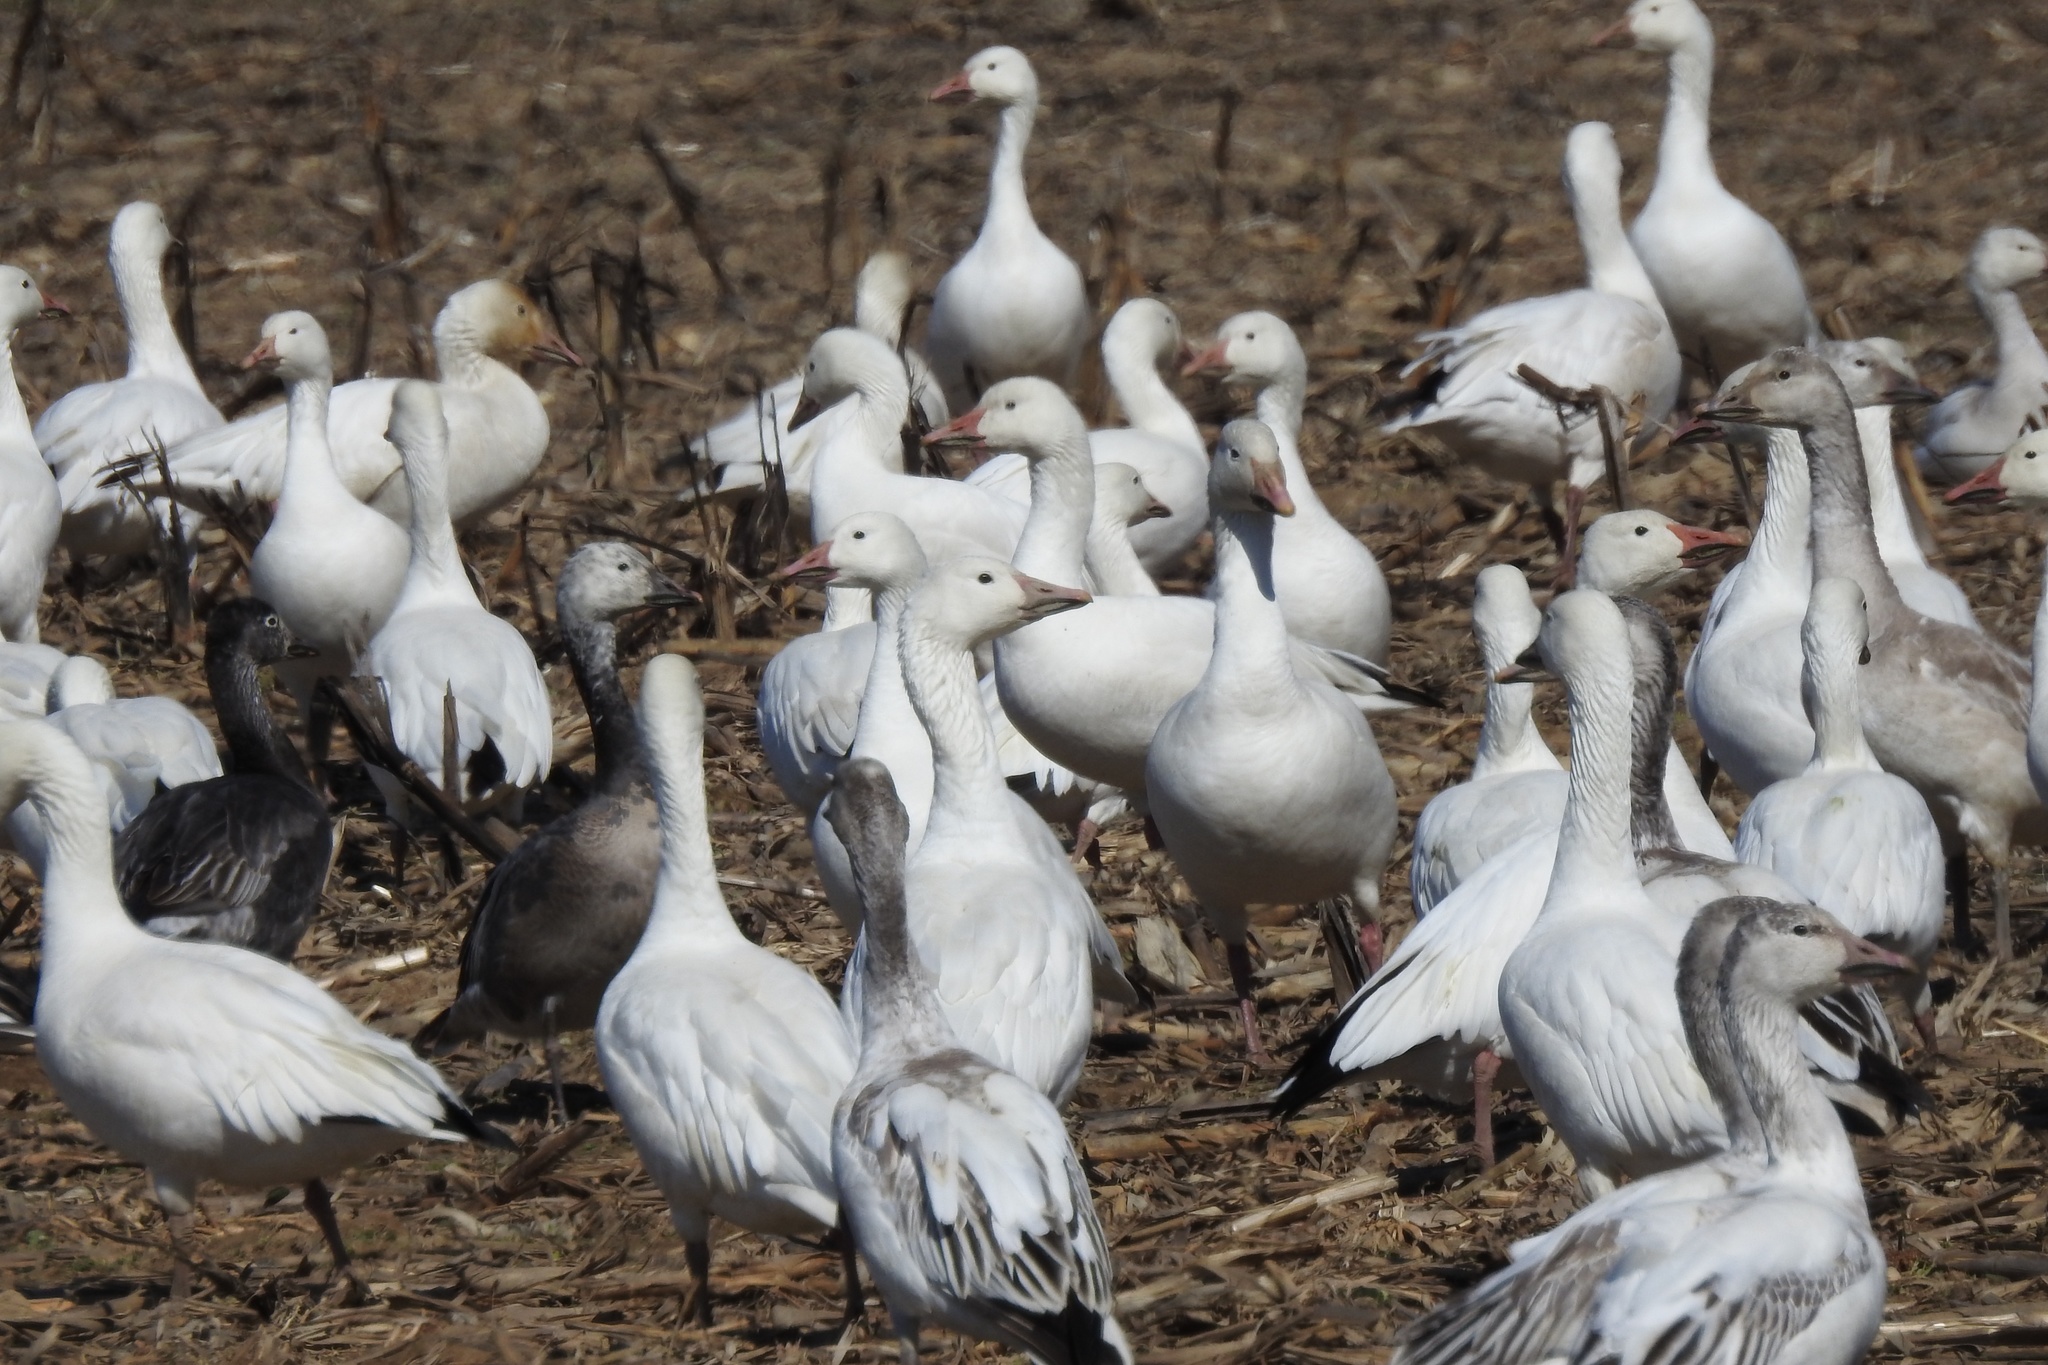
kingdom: Animalia
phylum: Chordata
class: Aves
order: Anseriformes
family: Anatidae
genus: Anser
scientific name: Anser caerulescens
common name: Snow goose
